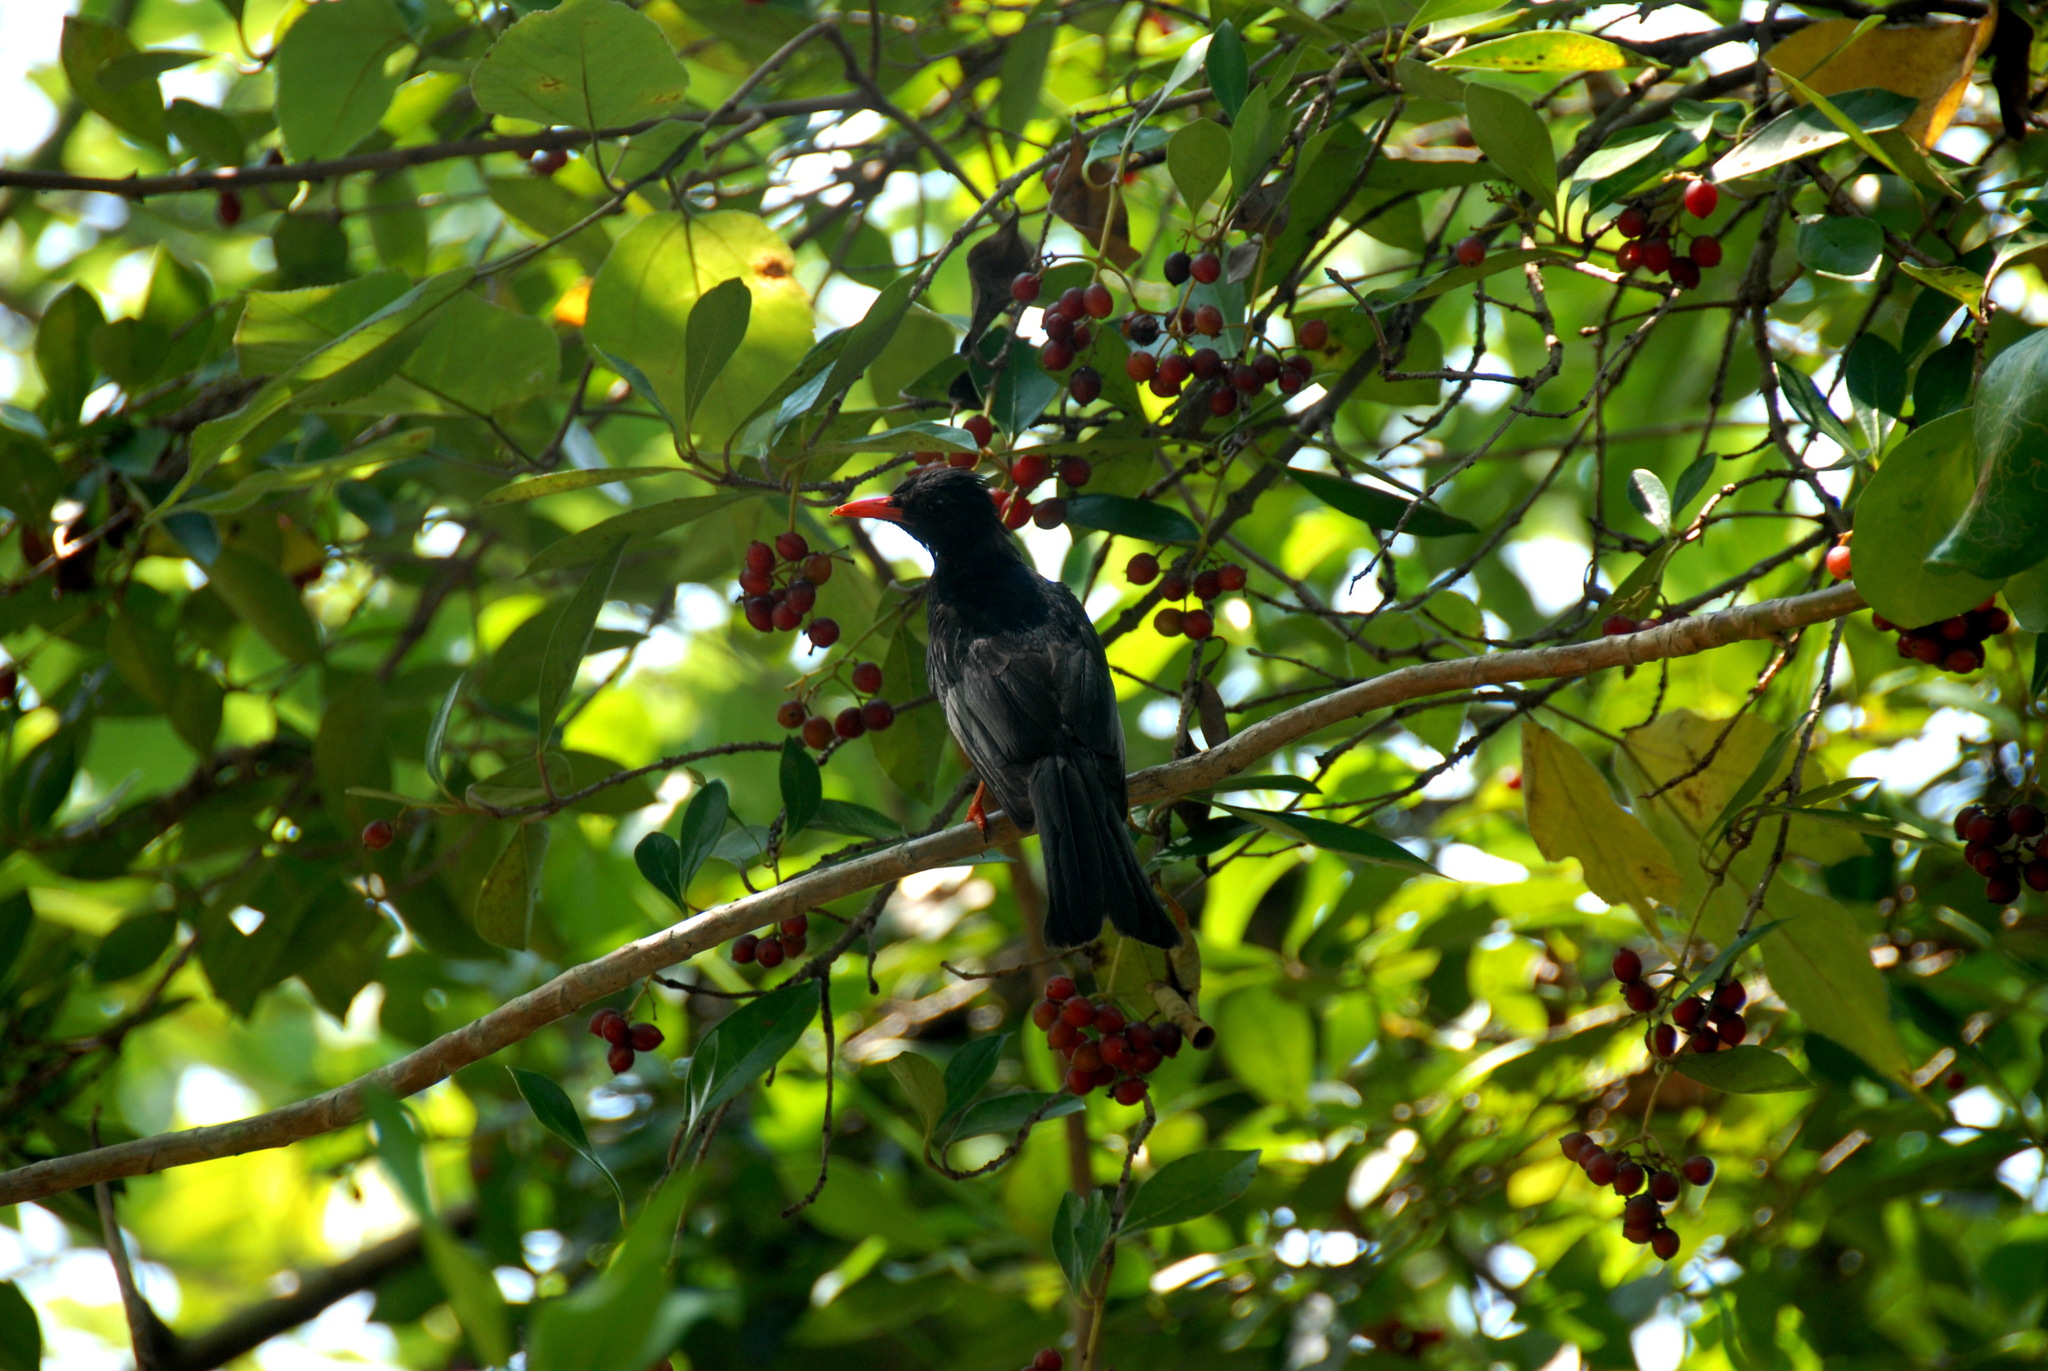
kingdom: Animalia
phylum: Chordata
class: Aves
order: Passeriformes
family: Pycnonotidae
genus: Hypsipetes
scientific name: Hypsipetes leucocephalus
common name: Black bulbul
